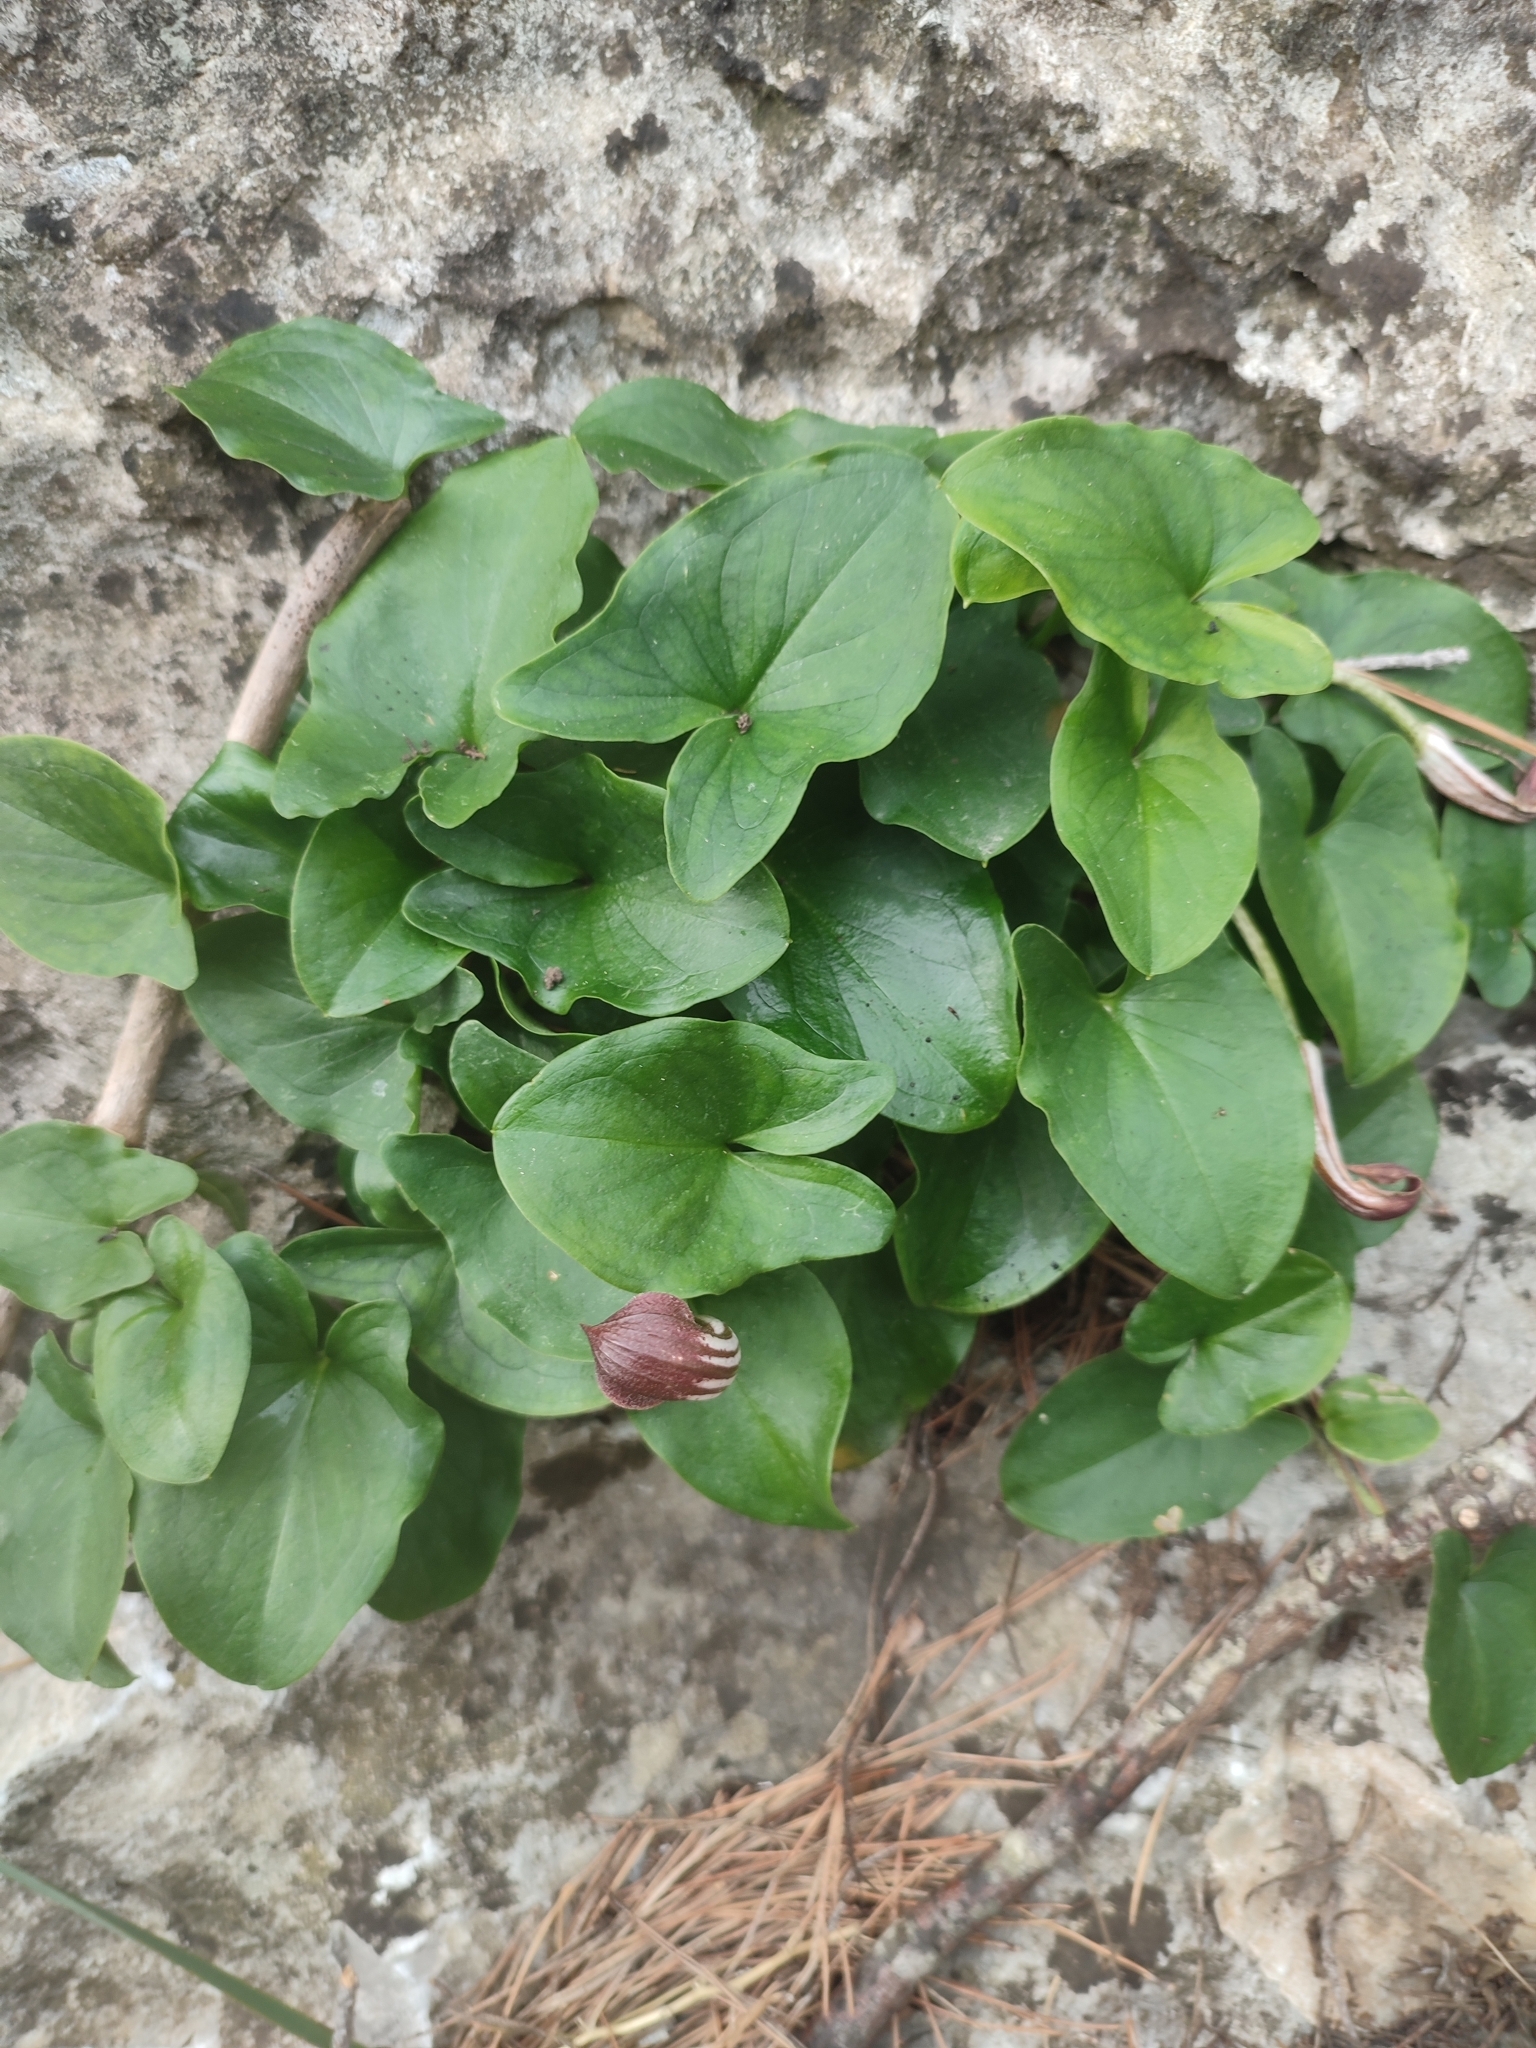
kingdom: Plantae
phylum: Tracheophyta
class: Liliopsida
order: Alismatales
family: Araceae
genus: Arisarum
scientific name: Arisarum vulgare
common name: Common arisarum
